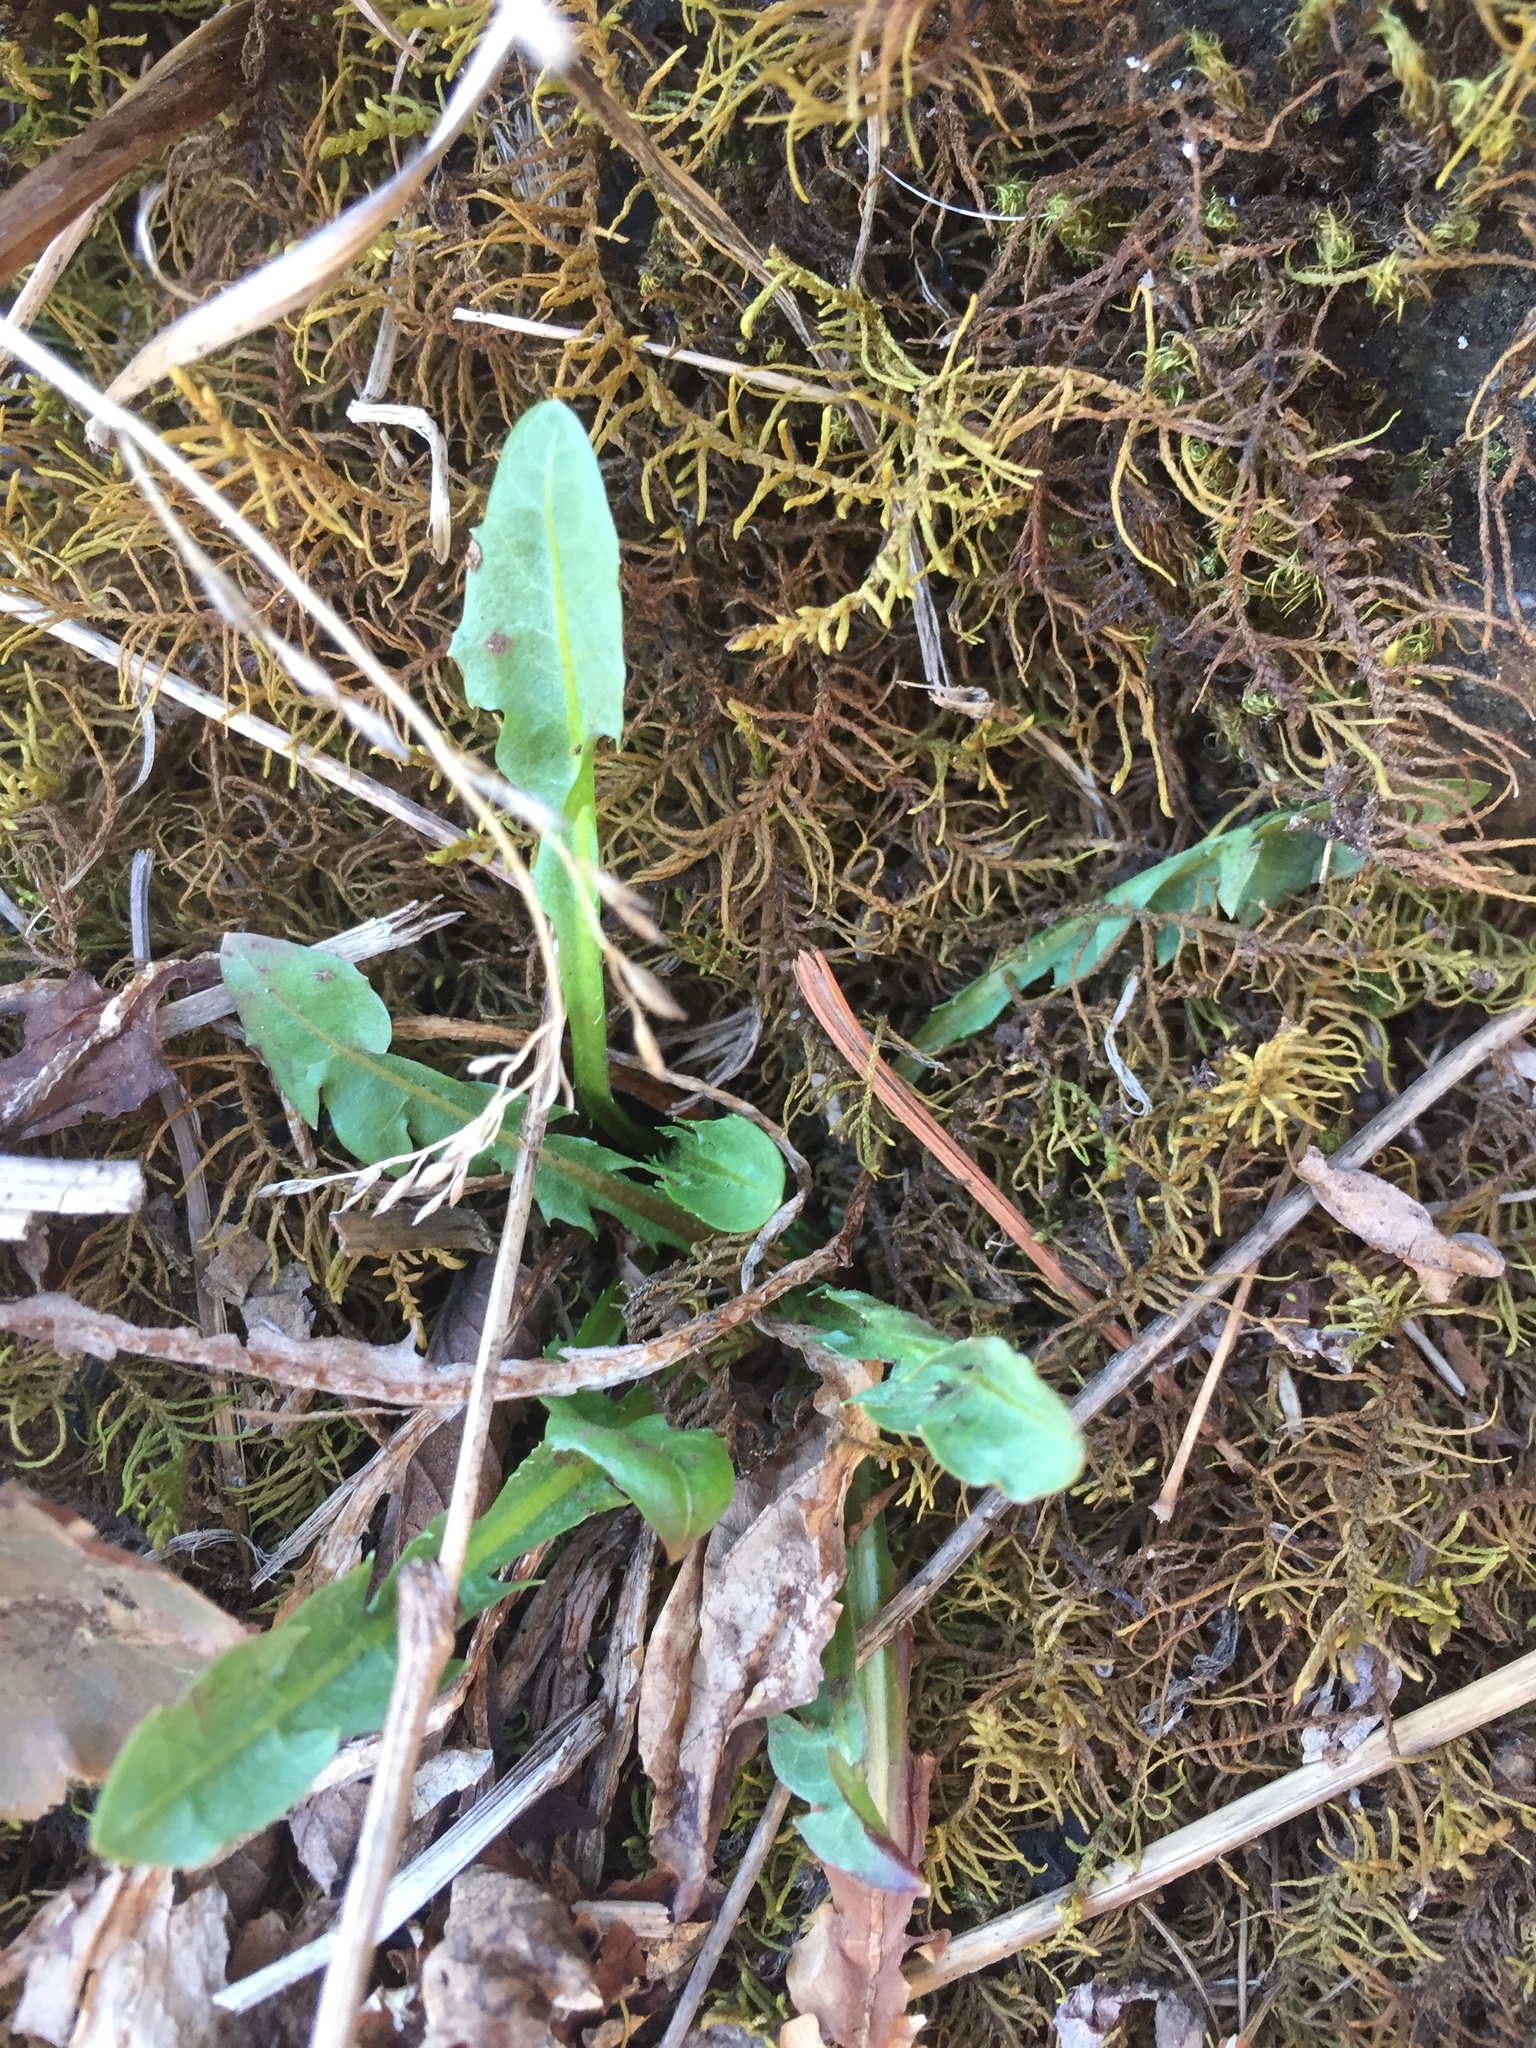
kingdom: Plantae
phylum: Tracheophyta
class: Magnoliopsida
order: Asterales
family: Asteraceae
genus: Taraxacum
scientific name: Taraxacum officinale
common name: Common dandelion
